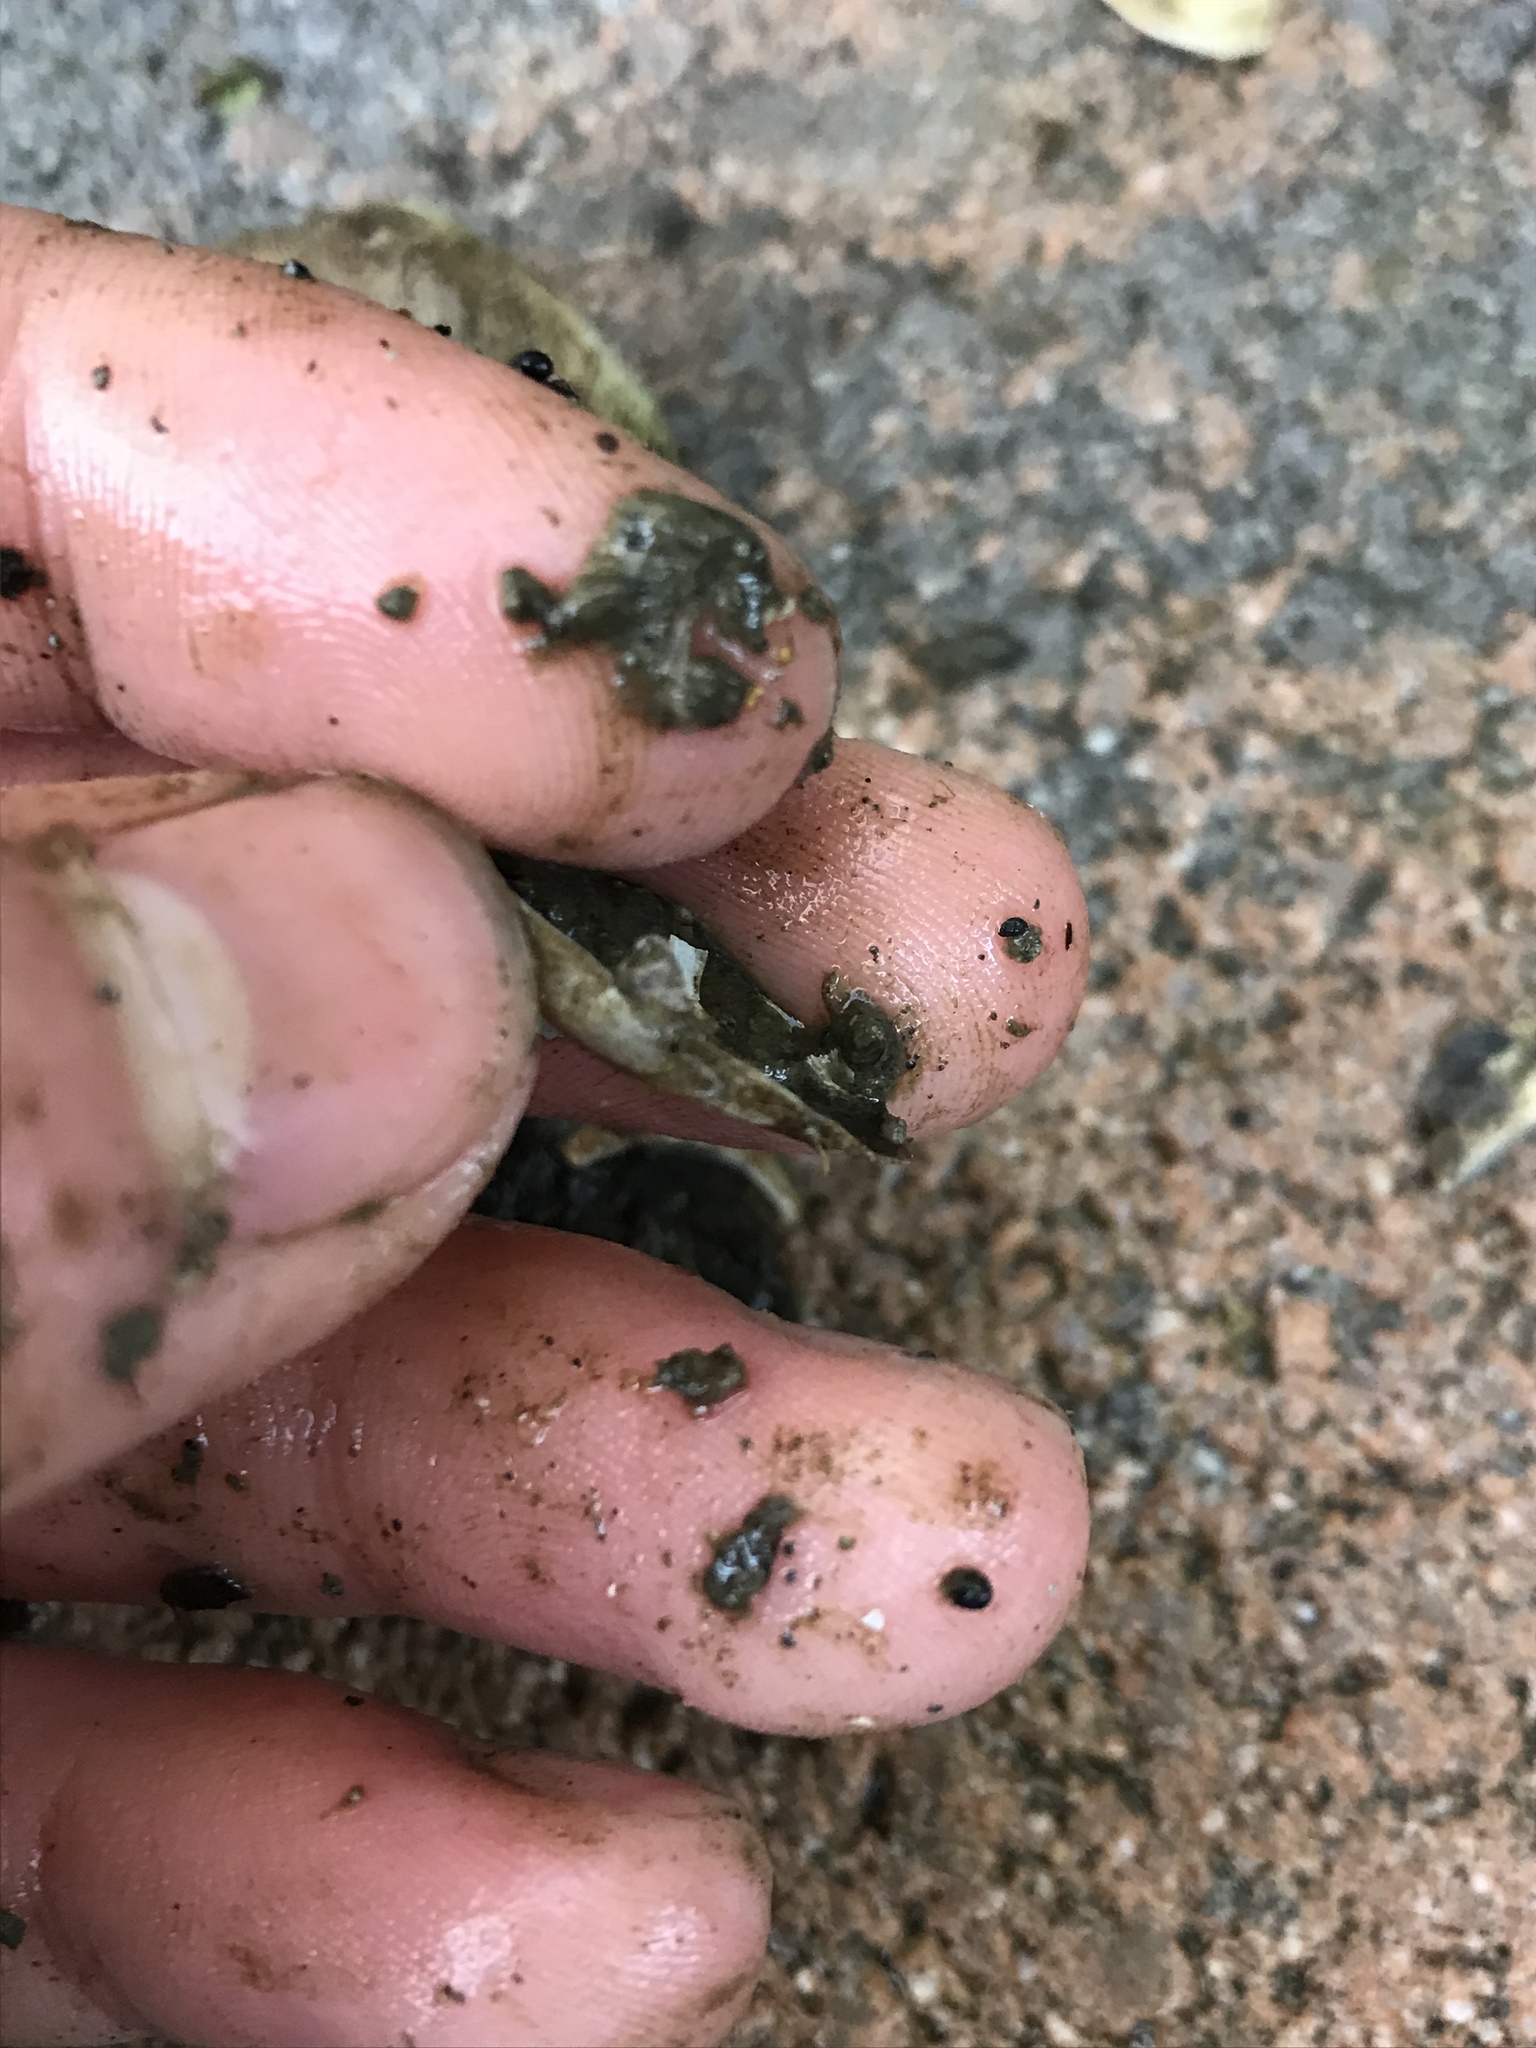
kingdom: Animalia
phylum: Mollusca
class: Bivalvia
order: Myida
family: Myidae
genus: Mya
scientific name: Mya arenaria
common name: Soft-shelled clam
